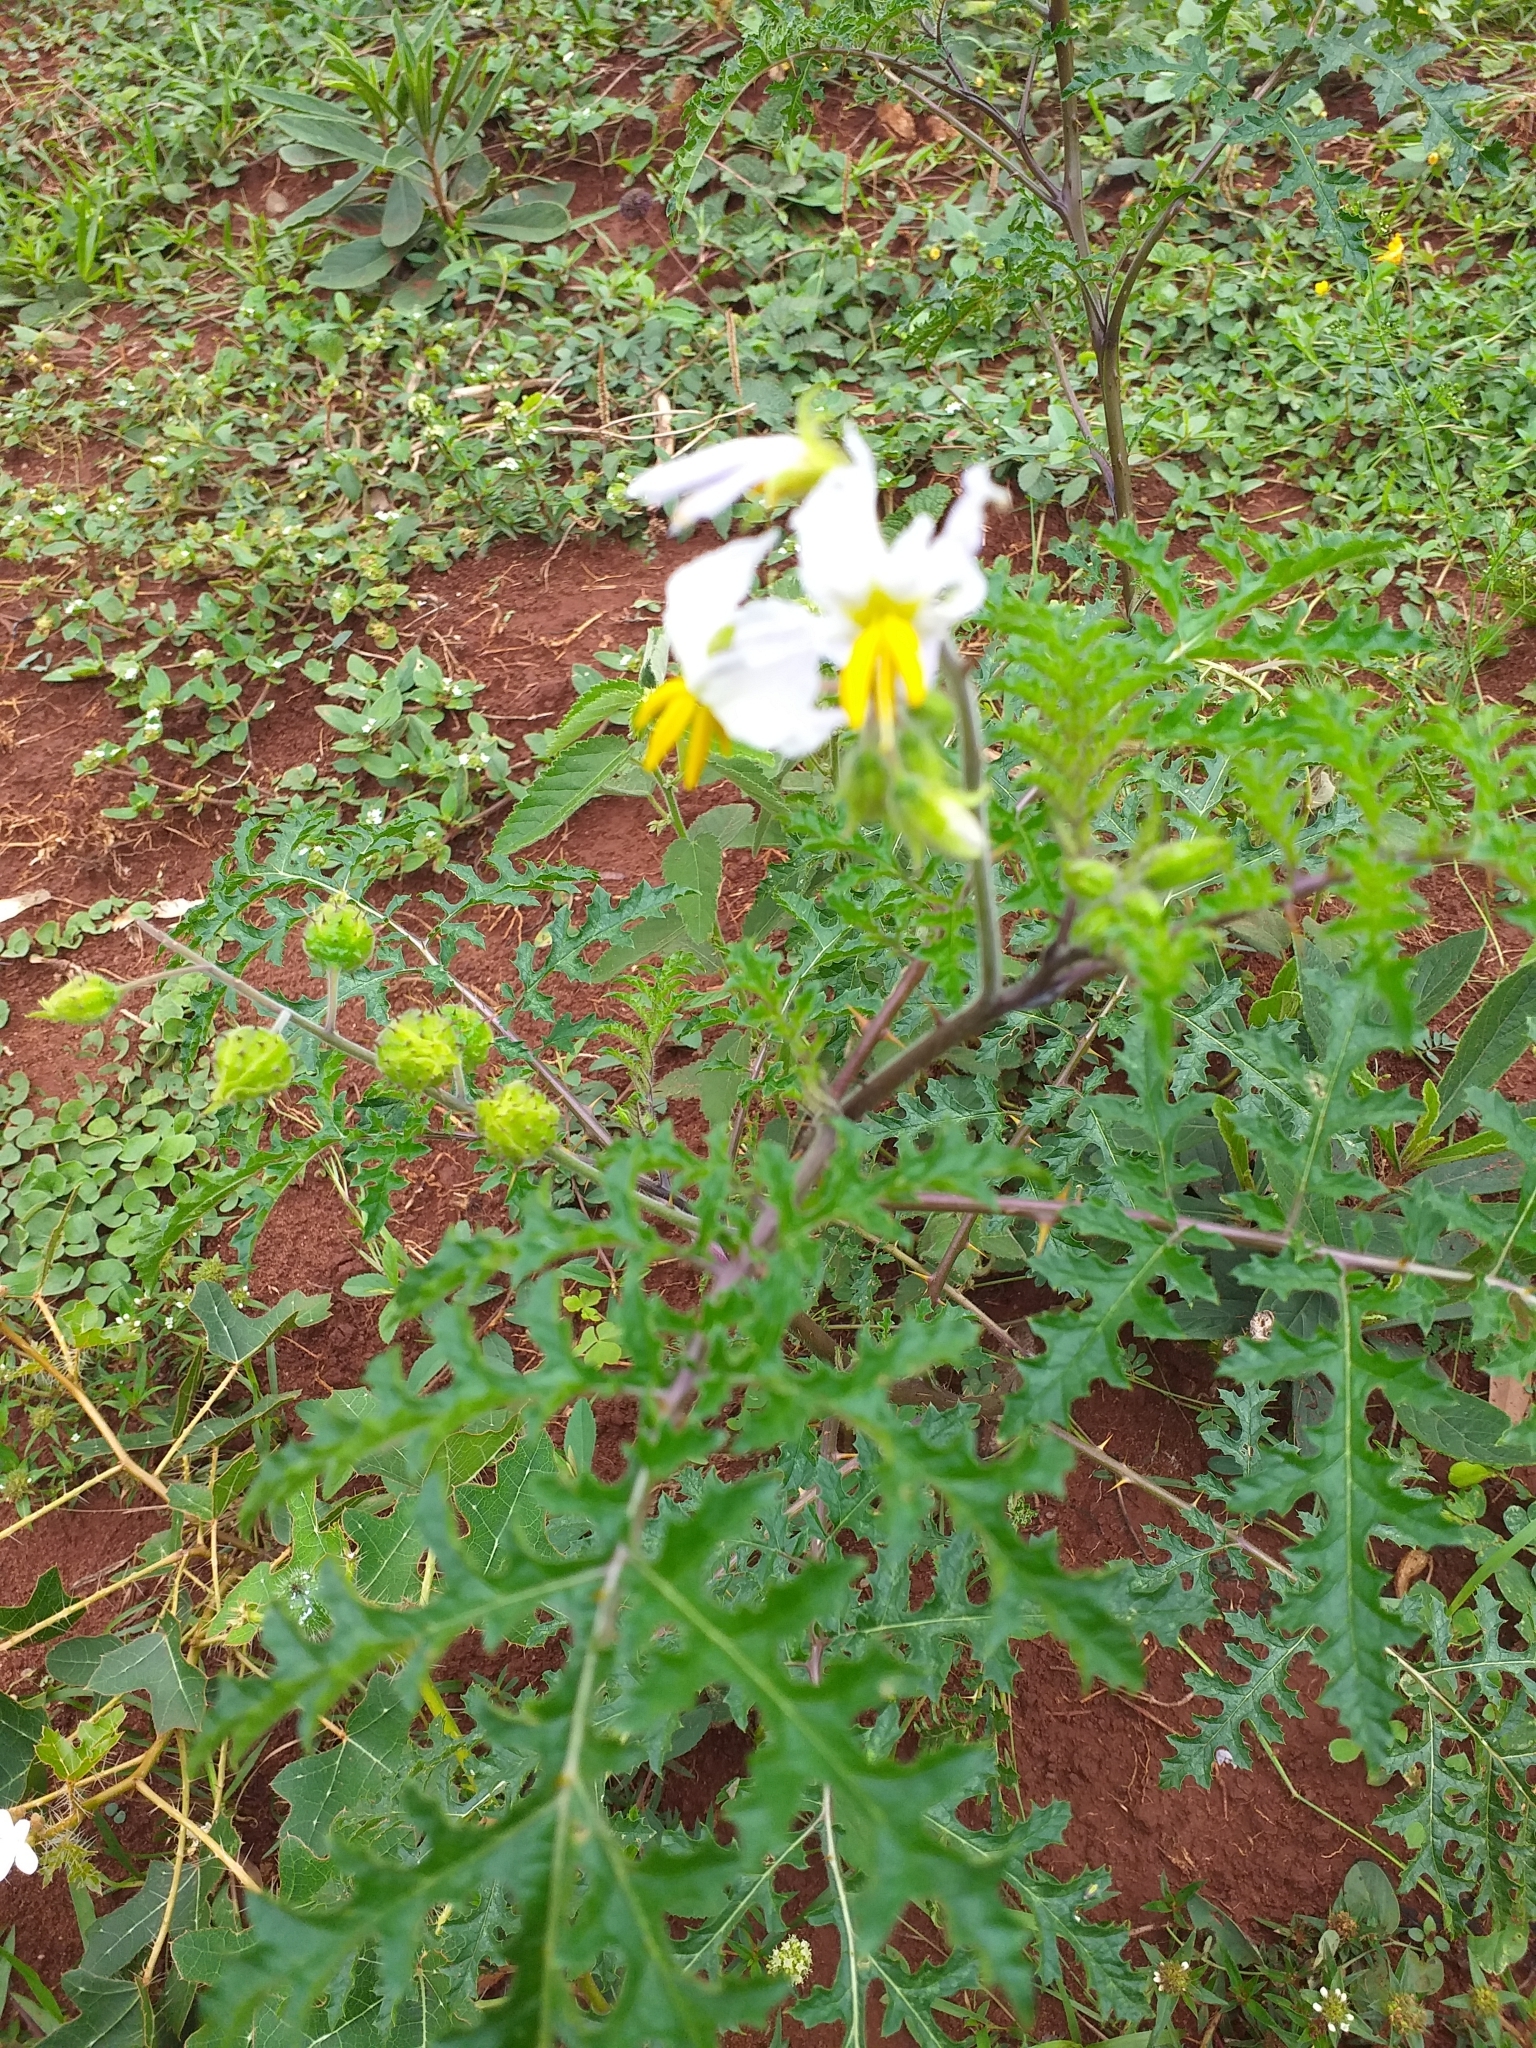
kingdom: Plantae
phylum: Tracheophyta
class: Magnoliopsida
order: Solanales
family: Solanaceae
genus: Solanum
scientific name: Solanum sisymbriifolium
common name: Red buffalo-bur
